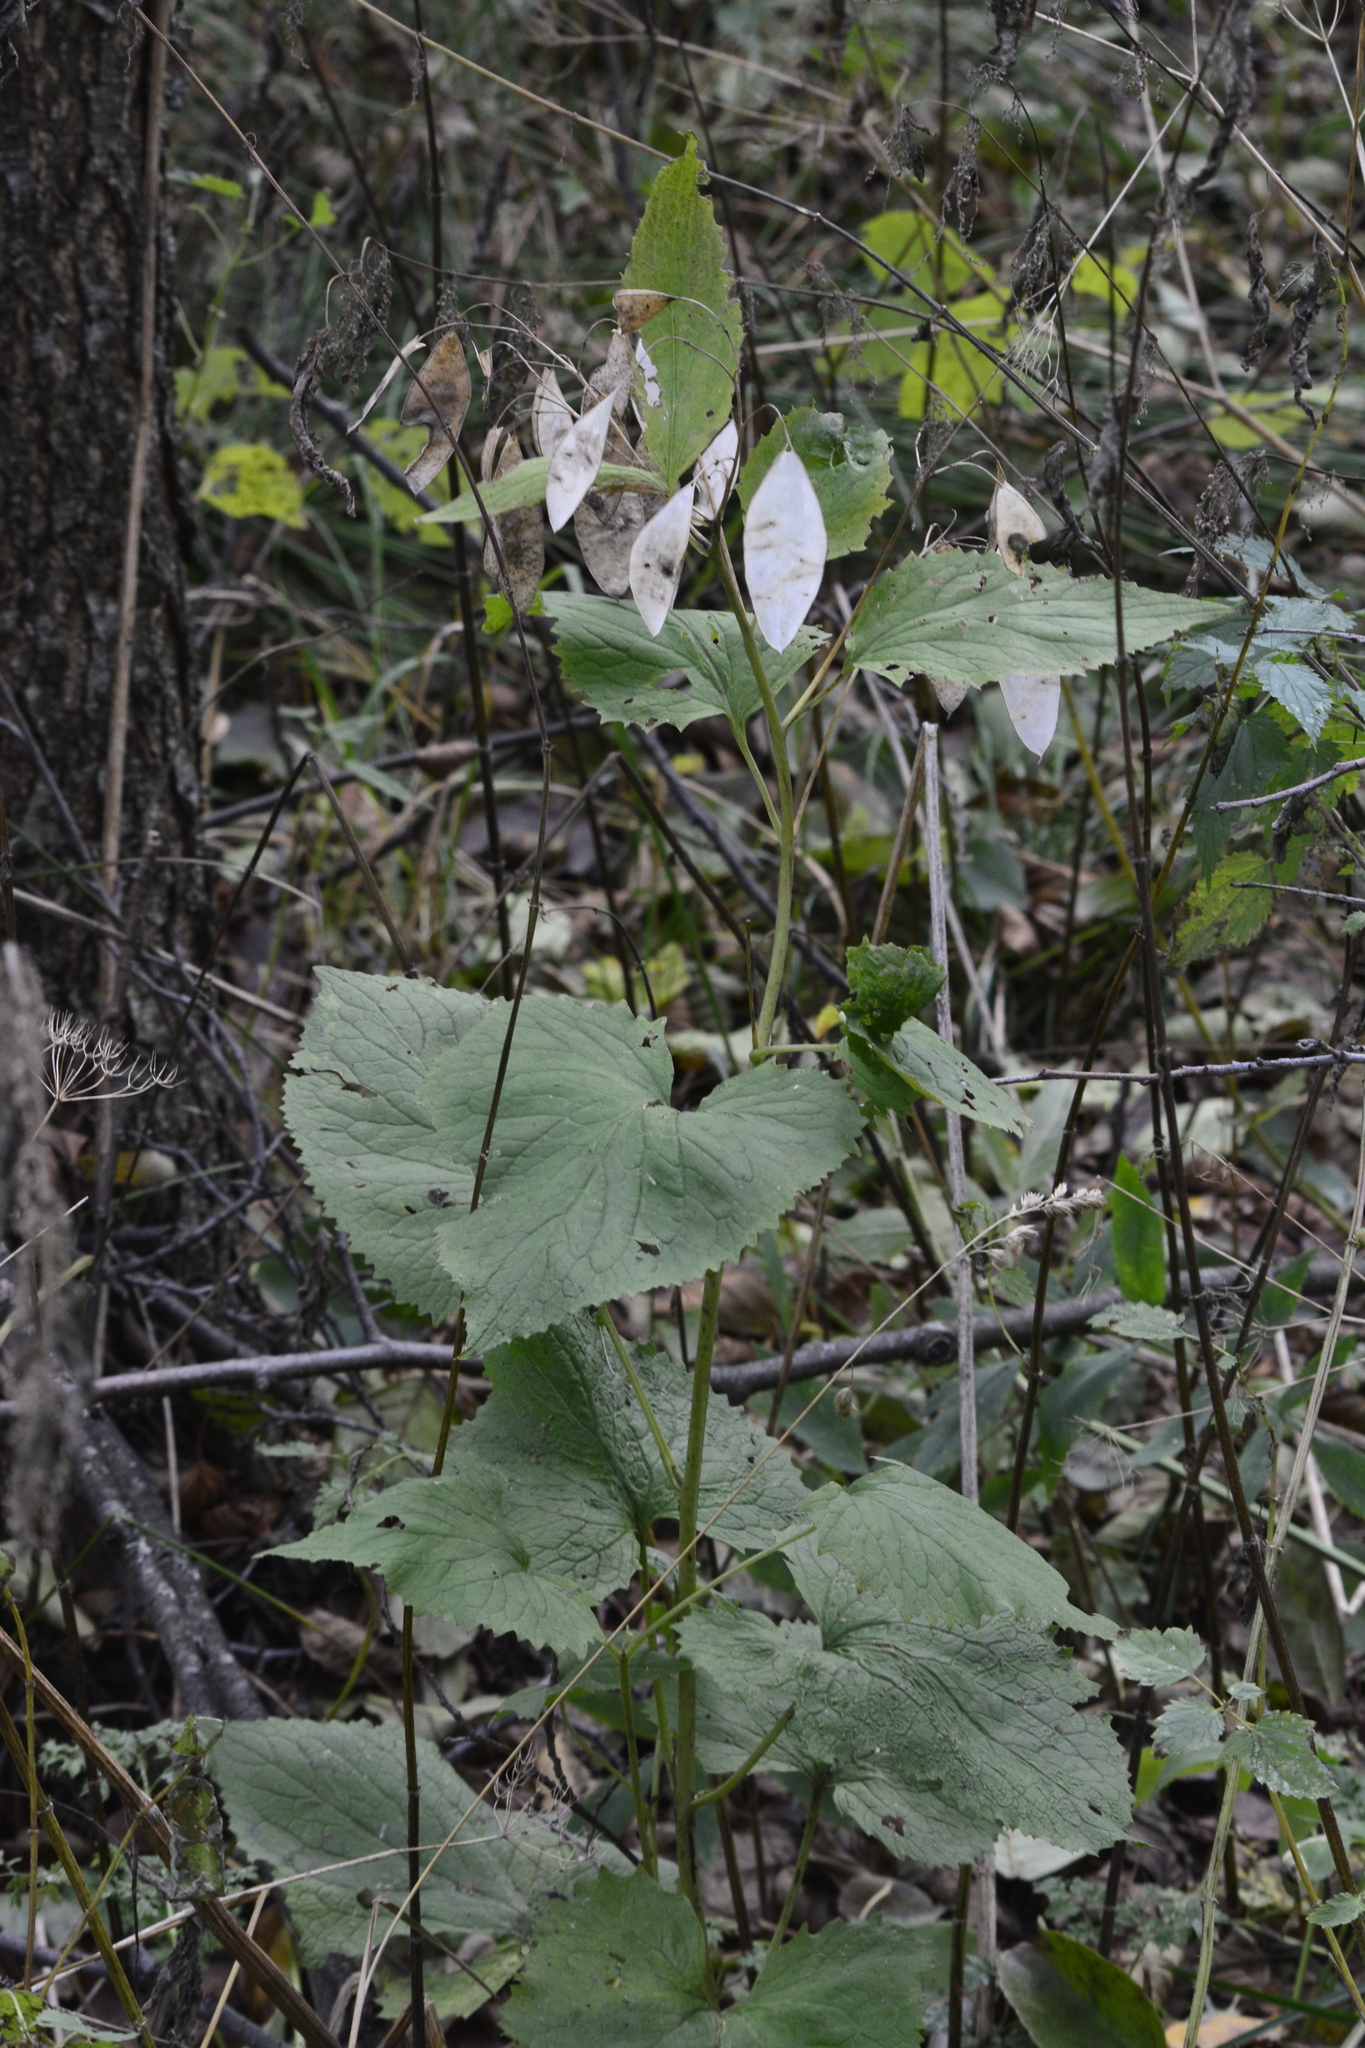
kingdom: Plantae
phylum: Tracheophyta
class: Magnoliopsida
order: Brassicales
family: Brassicaceae
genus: Lunaria
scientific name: Lunaria rediviva
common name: Perennial honesty
